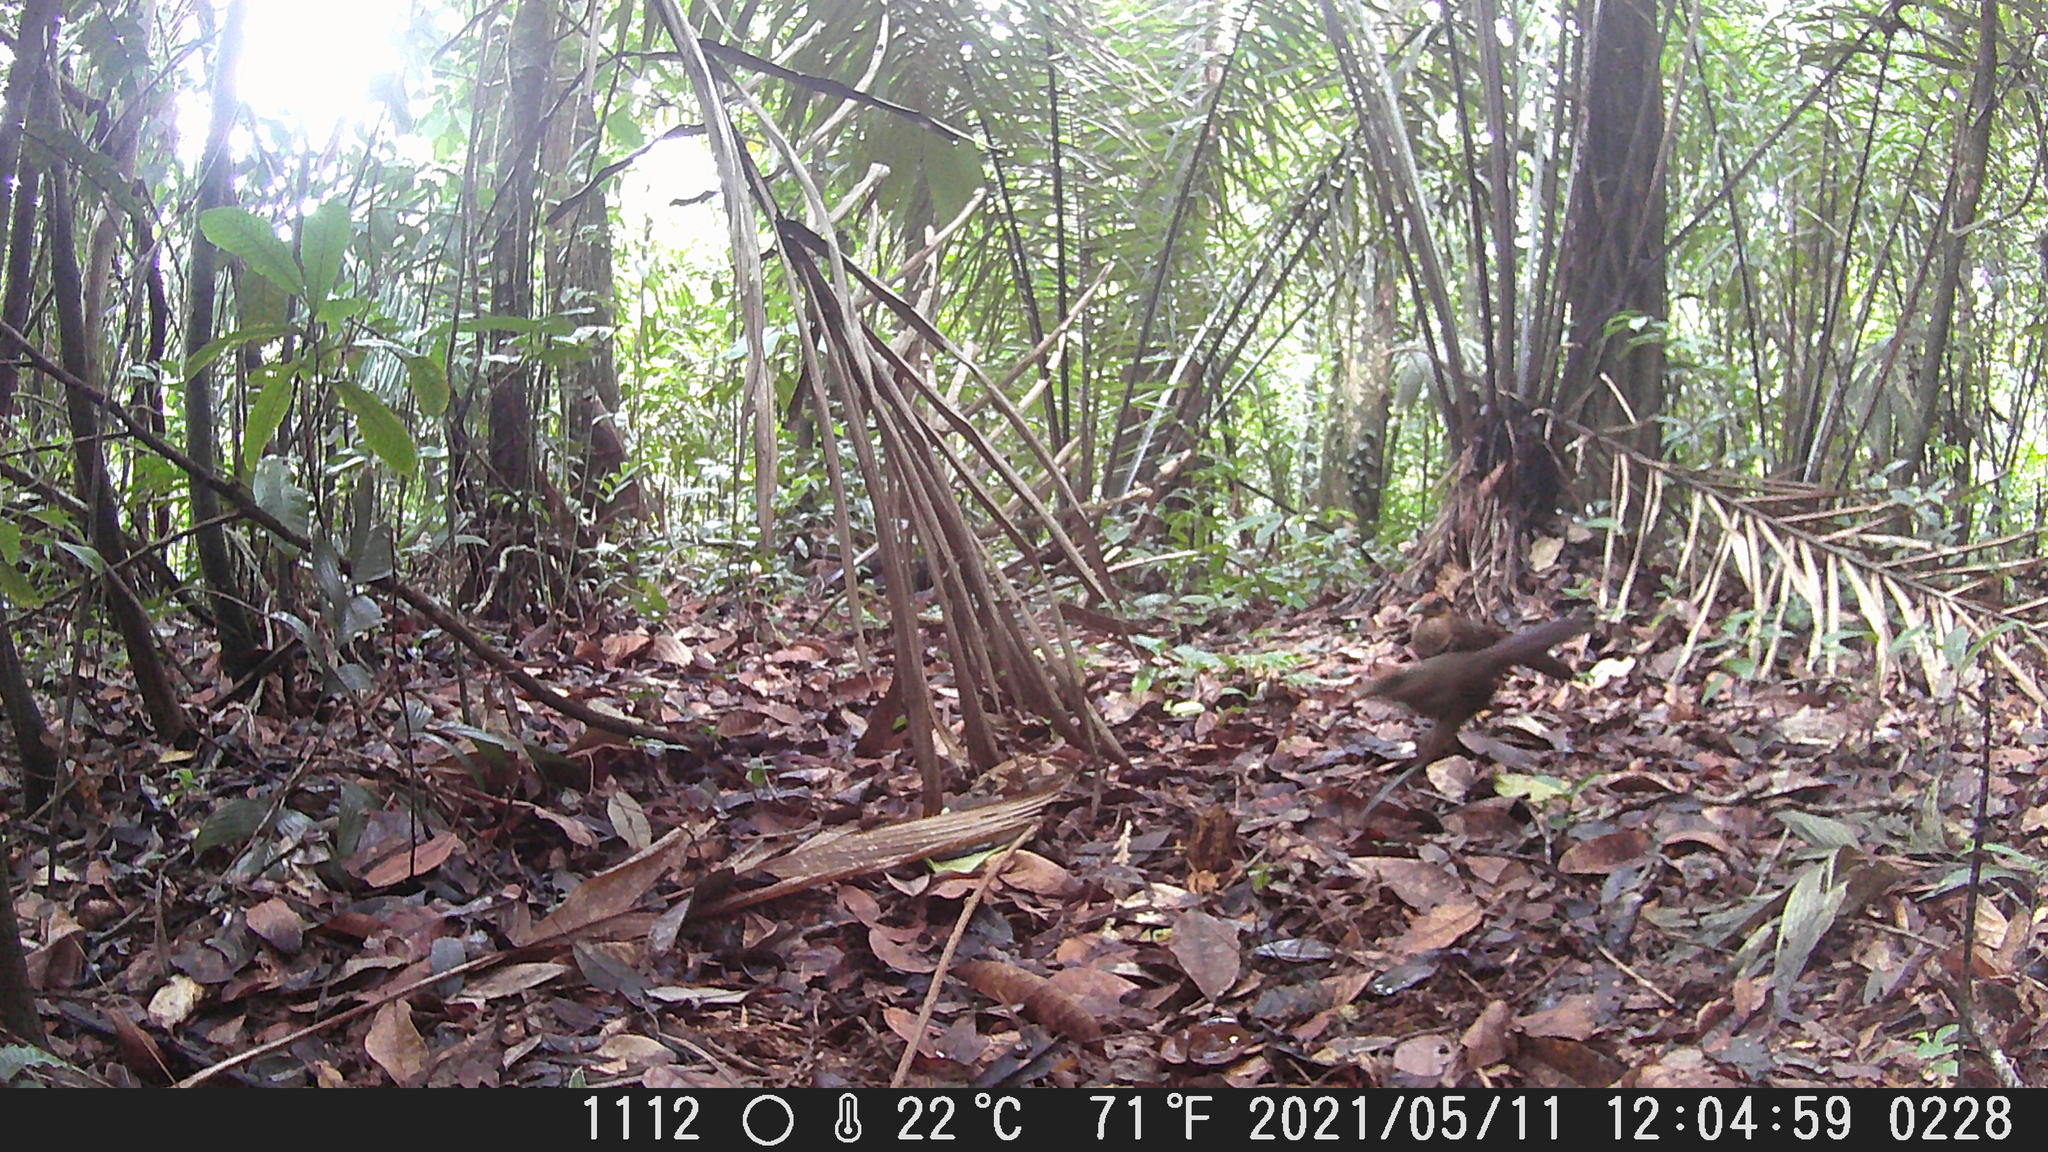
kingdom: Animalia
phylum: Chordata
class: Aves
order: Cuculiformes
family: Cuculidae
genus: Neomorphus
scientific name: Neomorphus geoffroyi
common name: Rufous-vented ground-cuckoo
